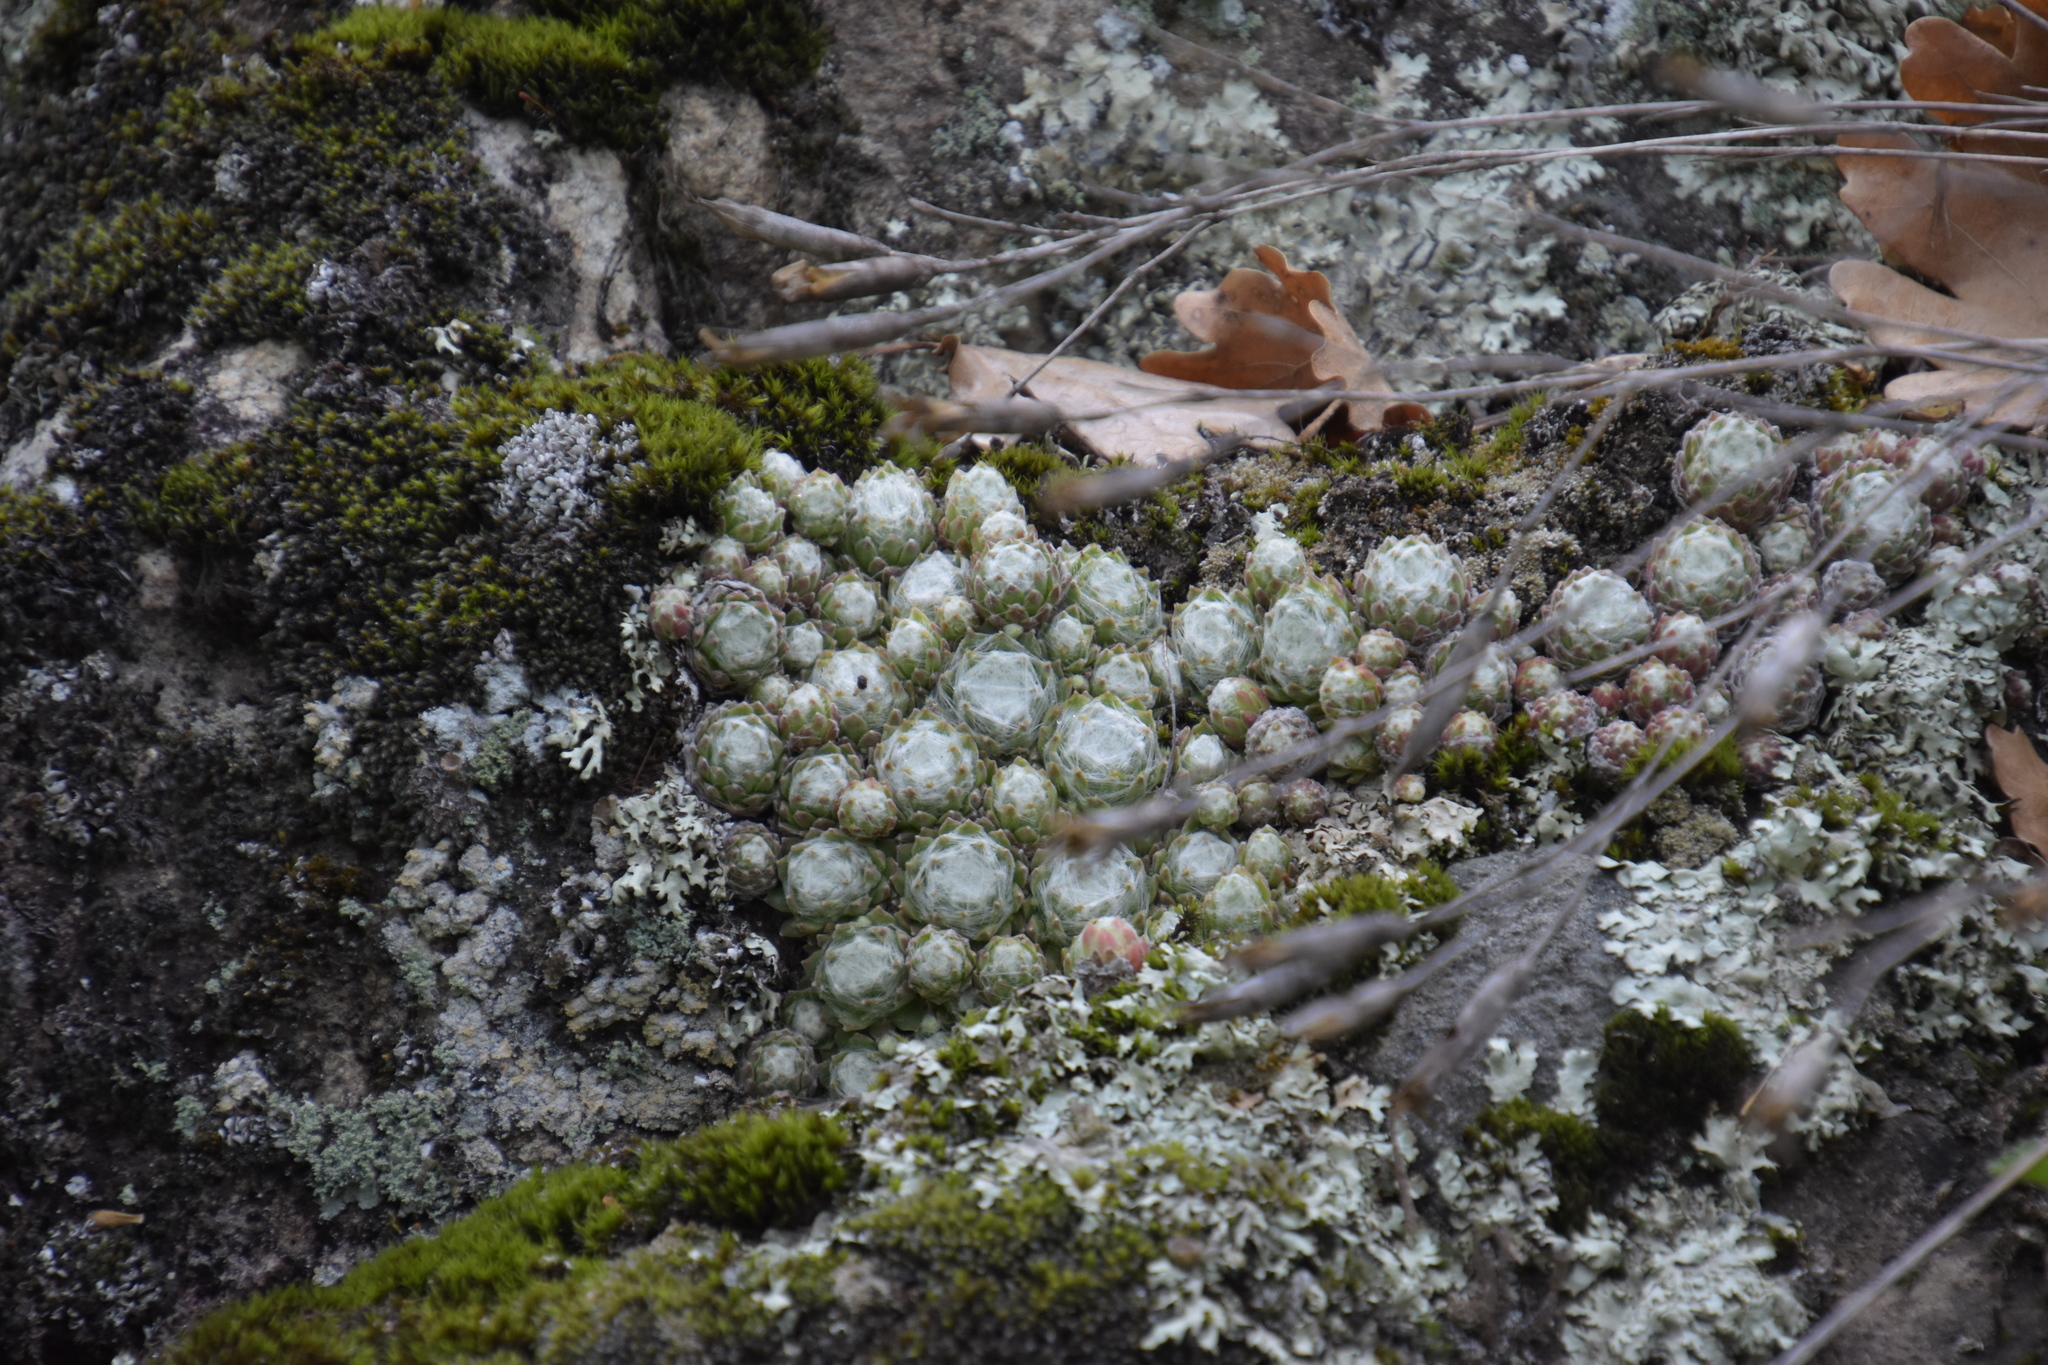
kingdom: Plantae
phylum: Tracheophyta
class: Magnoliopsida
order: Saxifragales
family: Crassulaceae
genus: Sempervivum
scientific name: Sempervivum arachnoideum
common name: Cobweb house-leek
